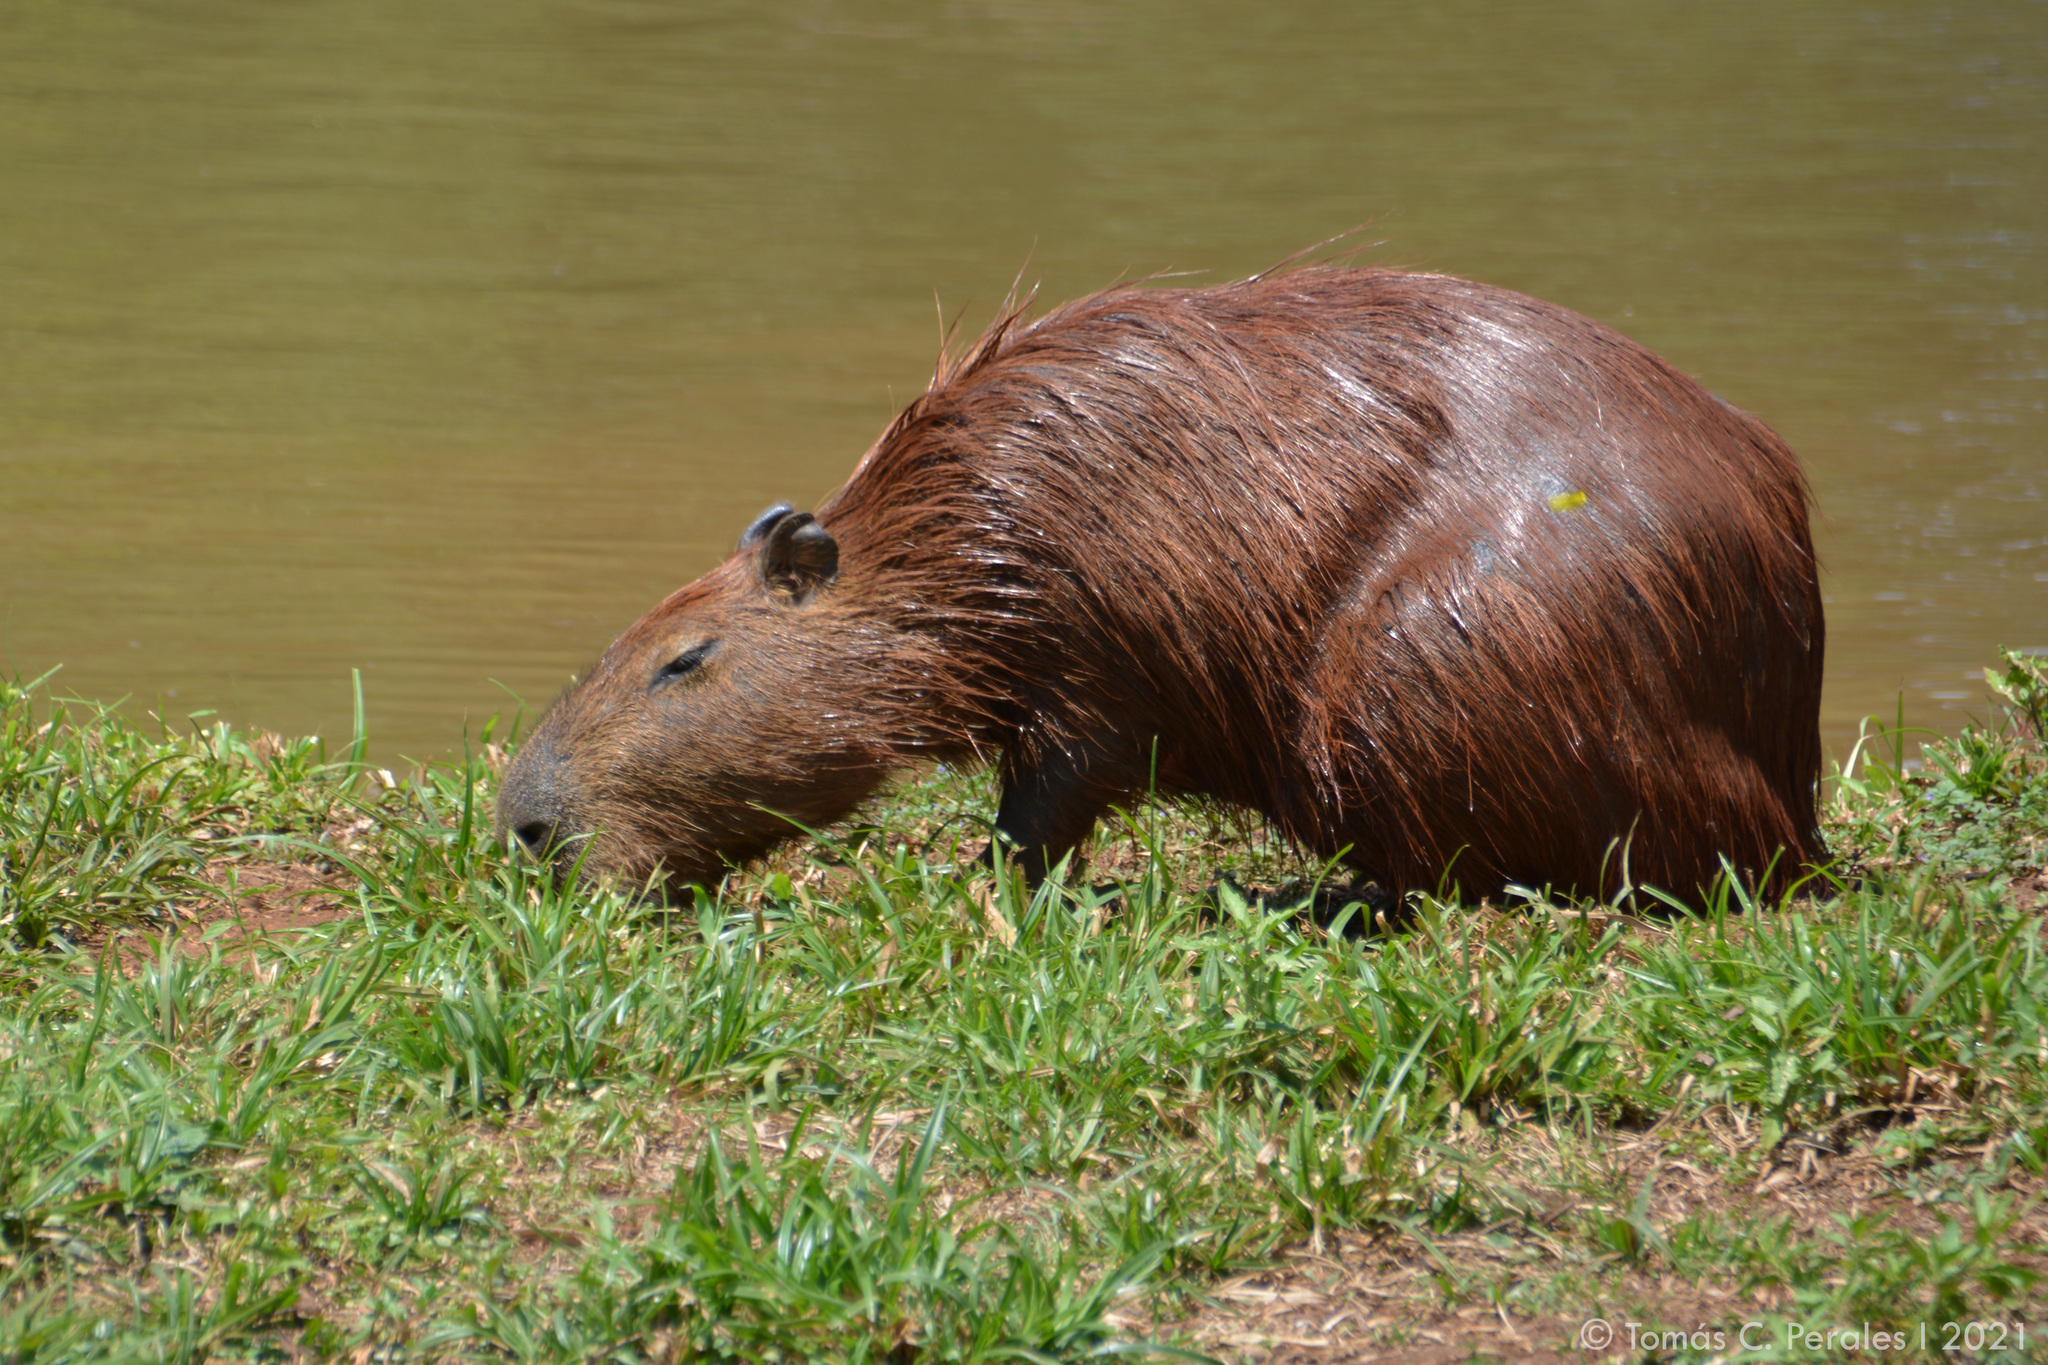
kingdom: Animalia
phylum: Chordata
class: Mammalia
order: Rodentia
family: Caviidae
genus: Hydrochoerus
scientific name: Hydrochoerus hydrochaeris
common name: Capybara
